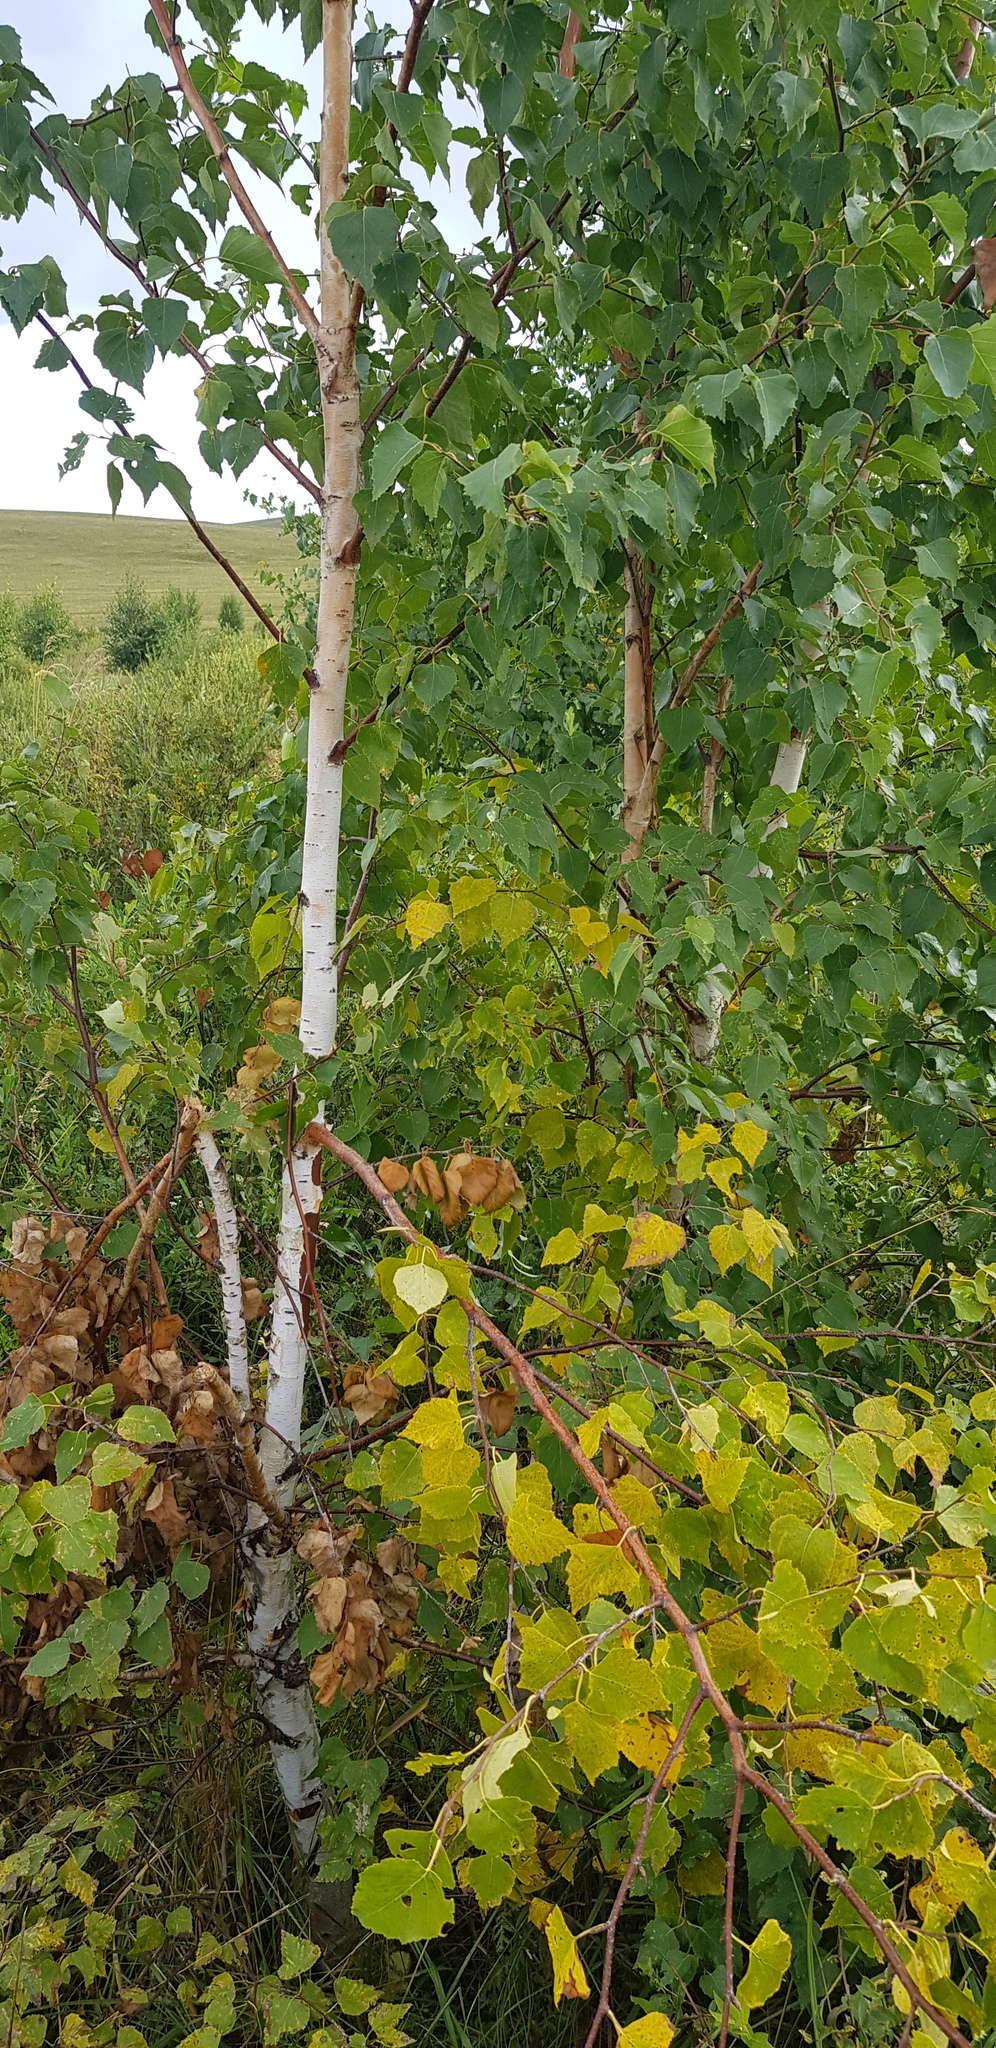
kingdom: Plantae
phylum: Tracheophyta
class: Magnoliopsida
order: Fagales
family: Betulaceae
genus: Betula
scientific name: Betula pendula
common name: Silver birch
